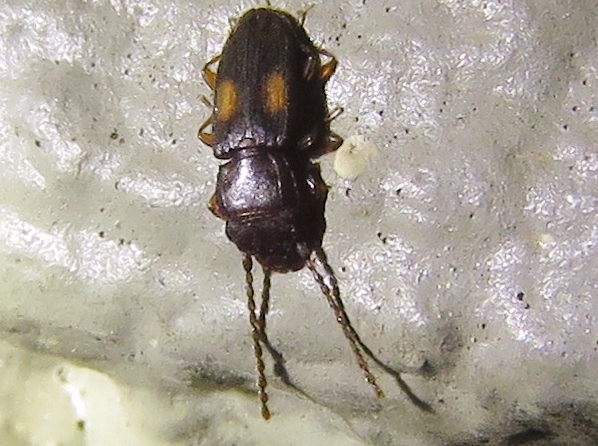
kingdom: Animalia
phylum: Arthropoda
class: Insecta
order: Coleoptera
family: Laemophloeidae
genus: Laemophloeus
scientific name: Laemophloeus biguttatus
